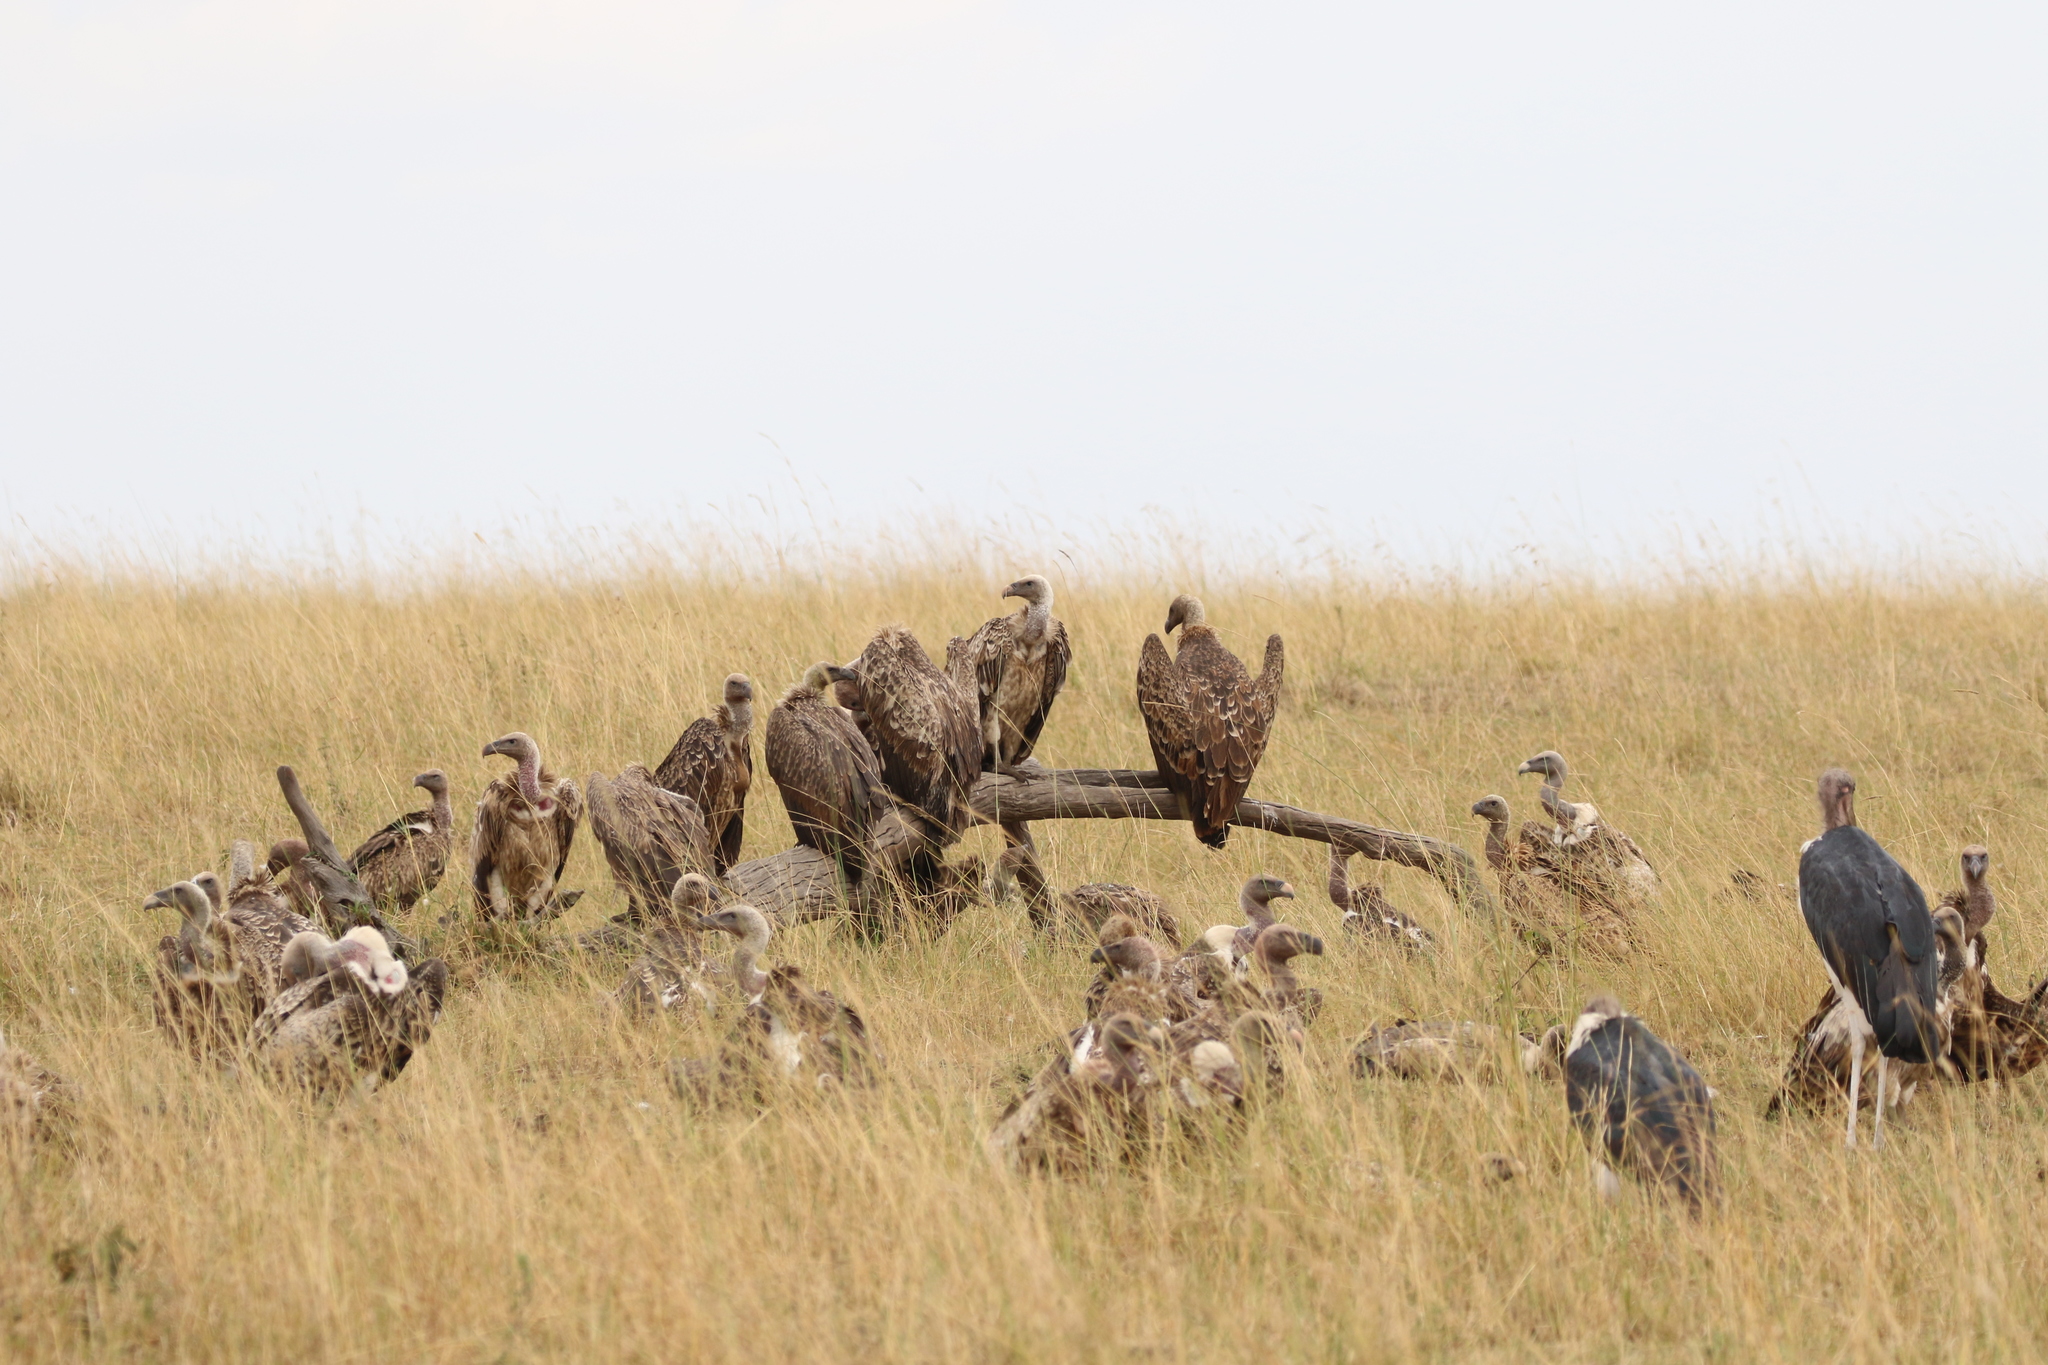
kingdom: Animalia
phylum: Chordata
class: Aves
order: Accipitriformes
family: Accipitridae
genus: Gyps
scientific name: Gyps rueppellii
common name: Rüppell's vulture
